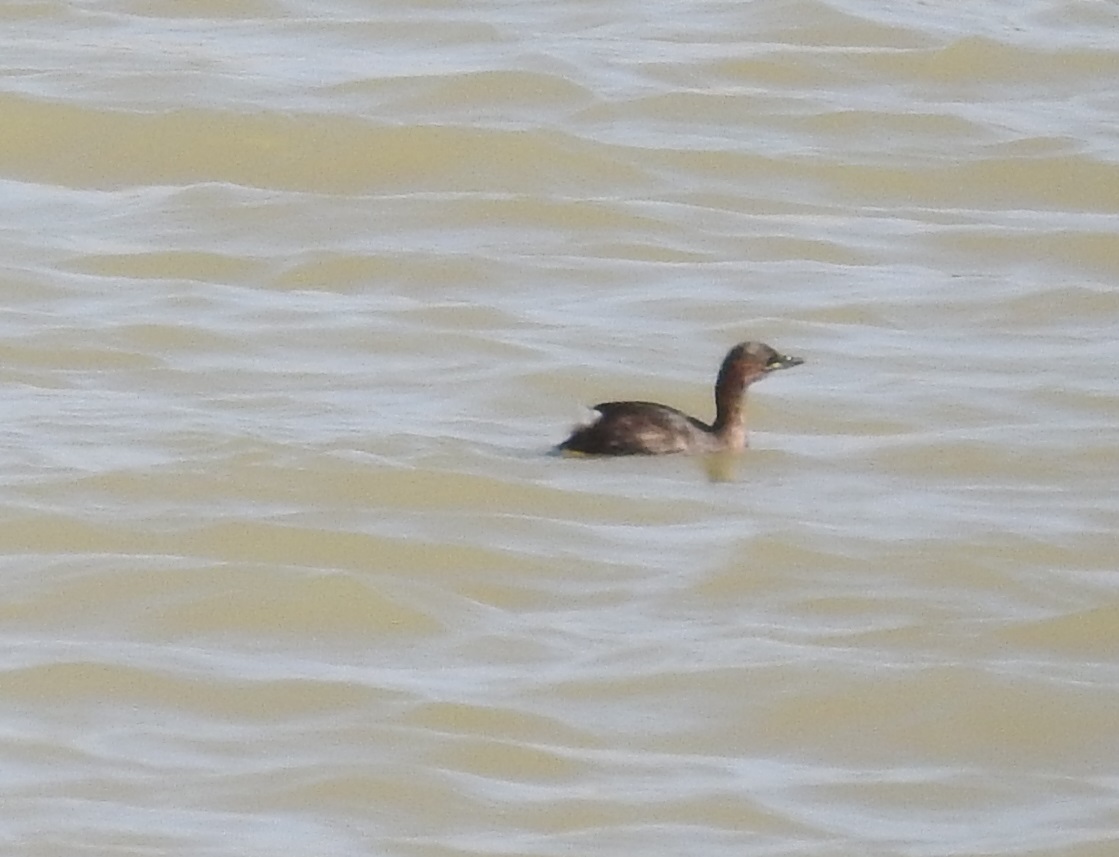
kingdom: Animalia
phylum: Chordata
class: Aves
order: Podicipediformes
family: Podicipedidae
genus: Tachybaptus
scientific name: Tachybaptus ruficollis
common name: Little grebe
